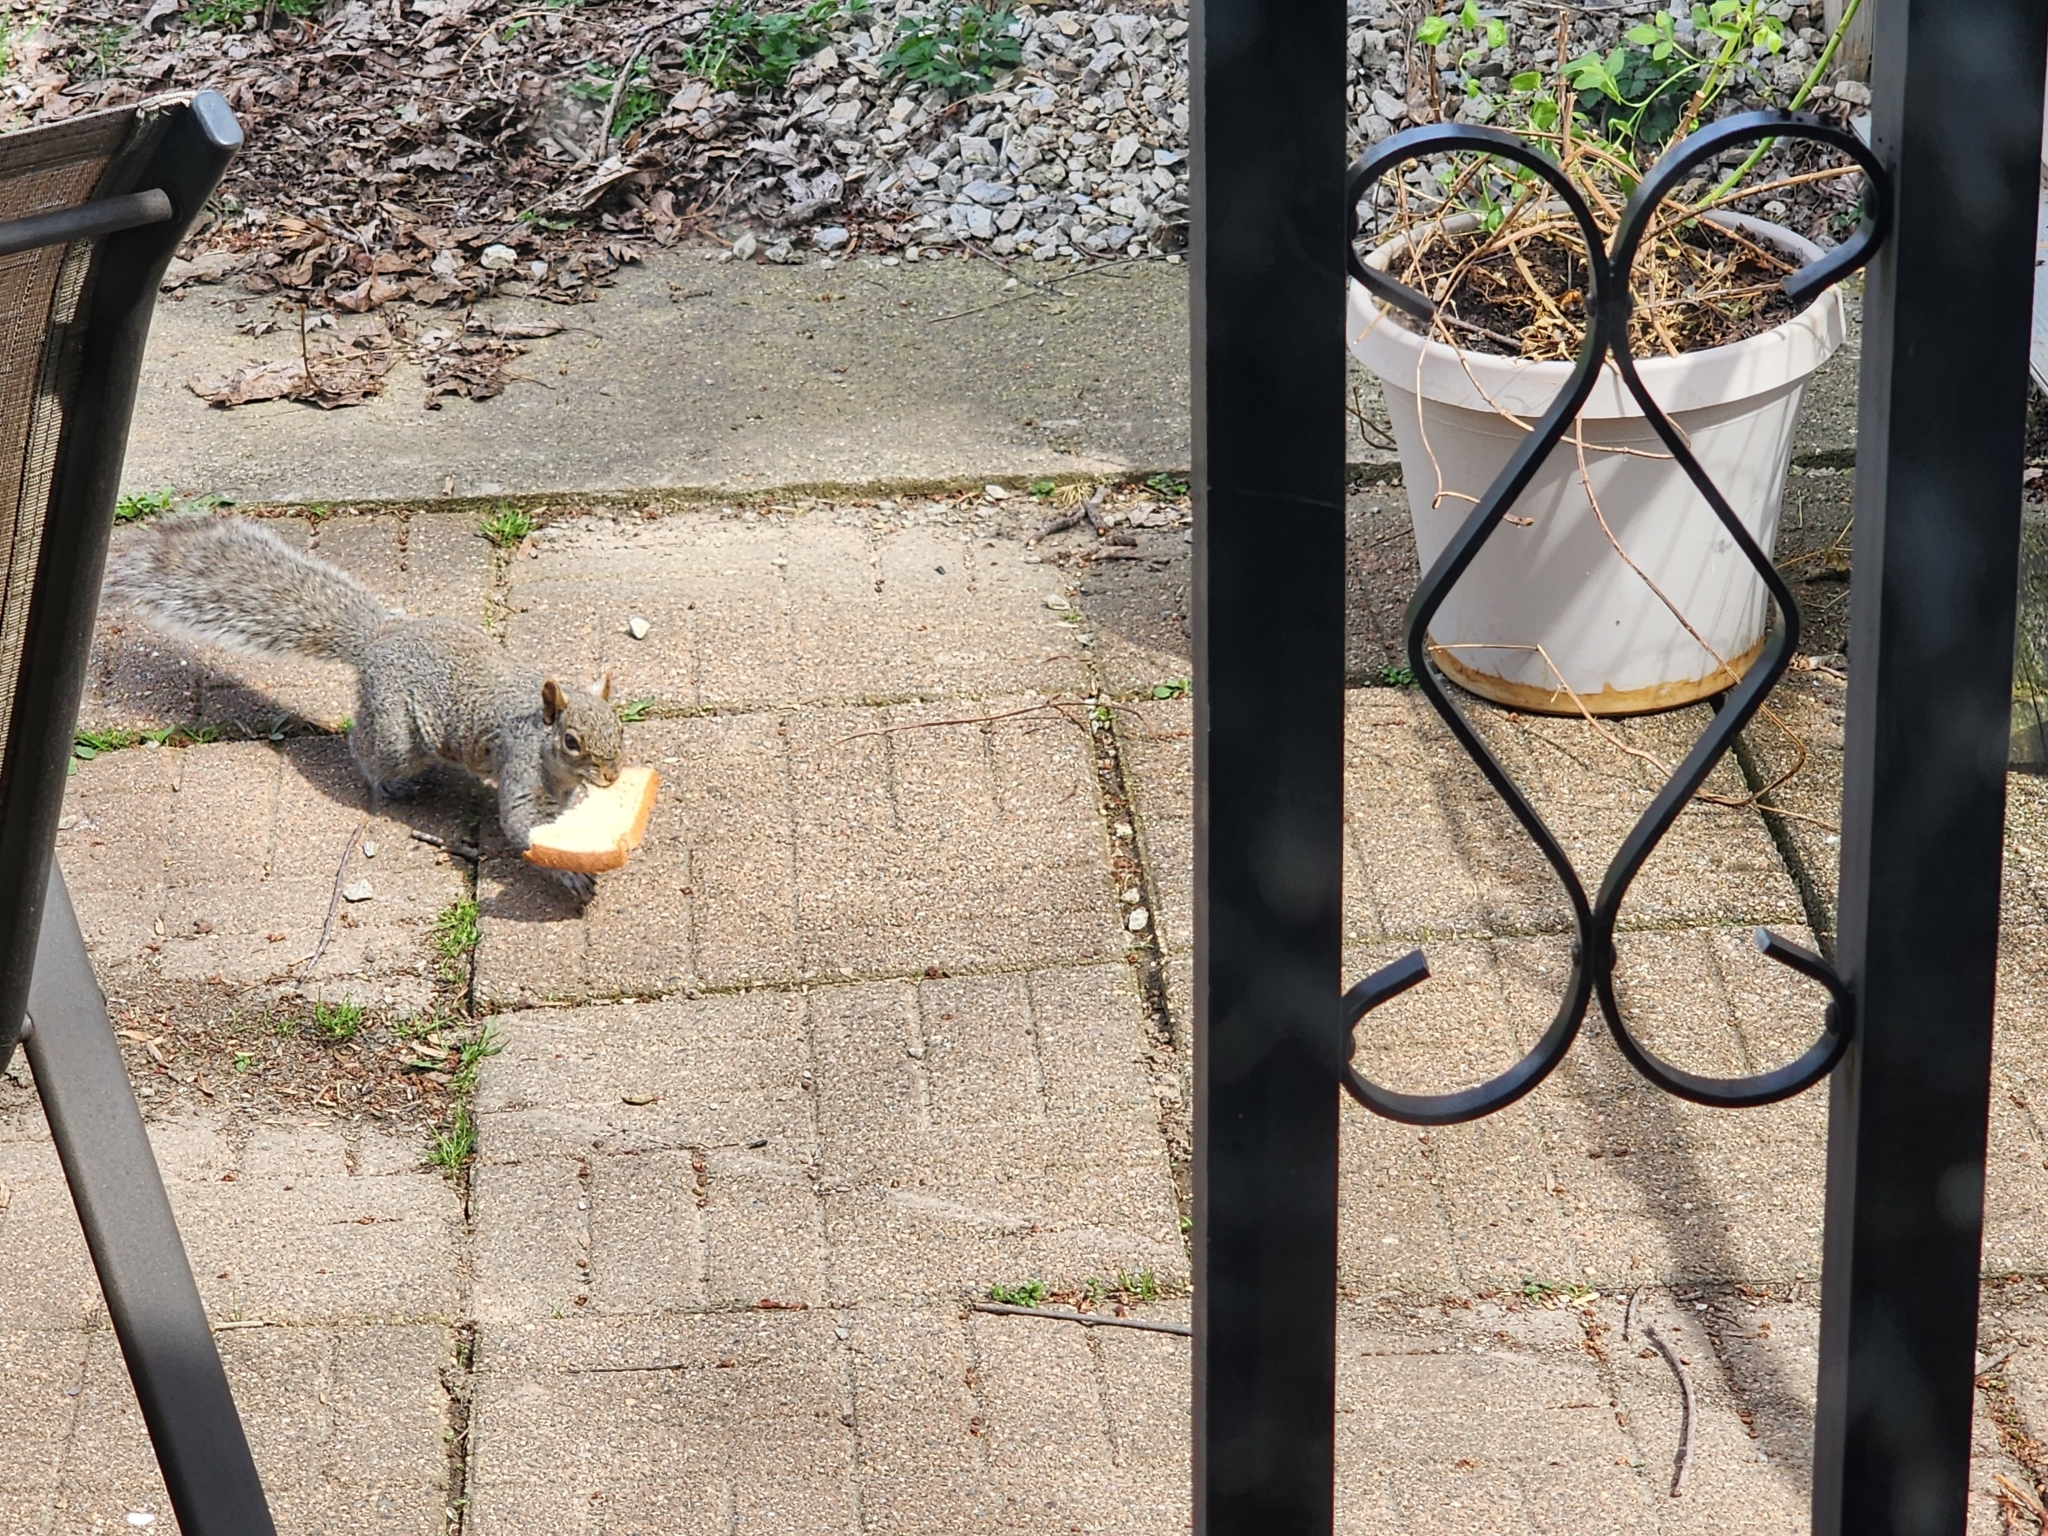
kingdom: Animalia
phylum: Chordata
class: Mammalia
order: Rodentia
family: Sciuridae
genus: Sciurus
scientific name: Sciurus carolinensis
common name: Eastern gray squirrel
